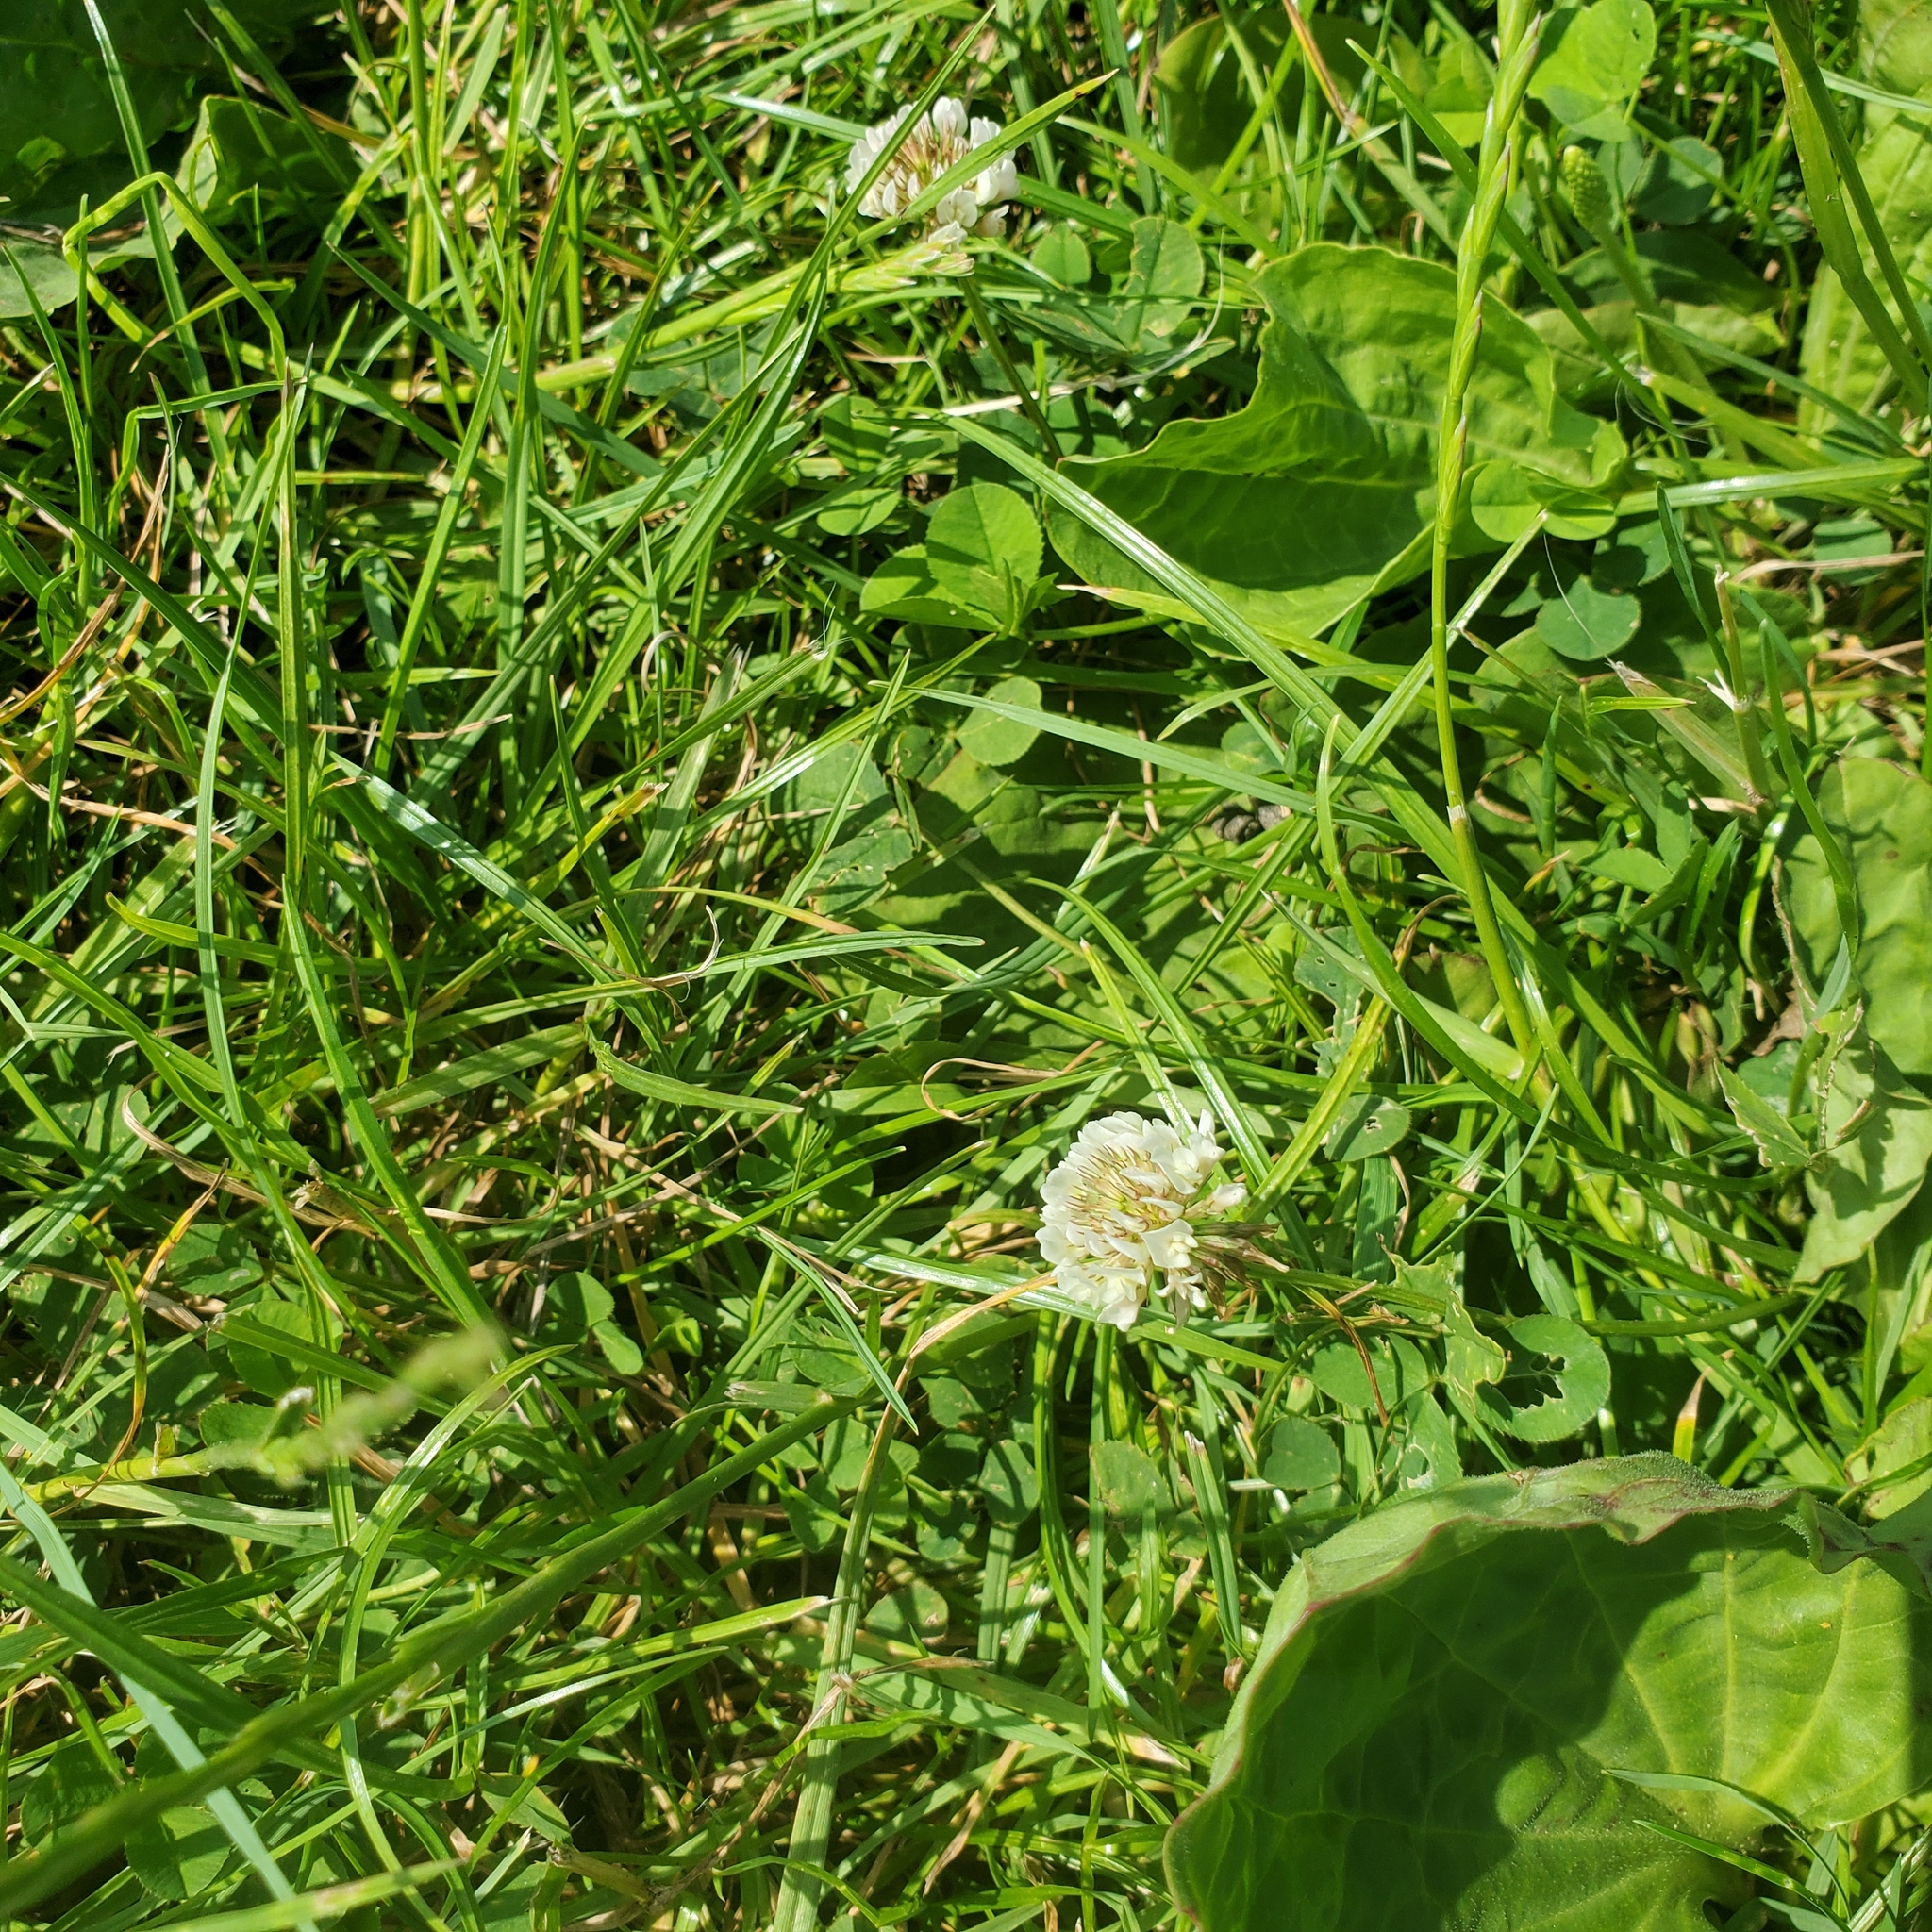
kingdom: Plantae
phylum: Tracheophyta
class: Magnoliopsida
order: Fabales
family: Fabaceae
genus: Trifolium
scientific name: Trifolium repens
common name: White clover
